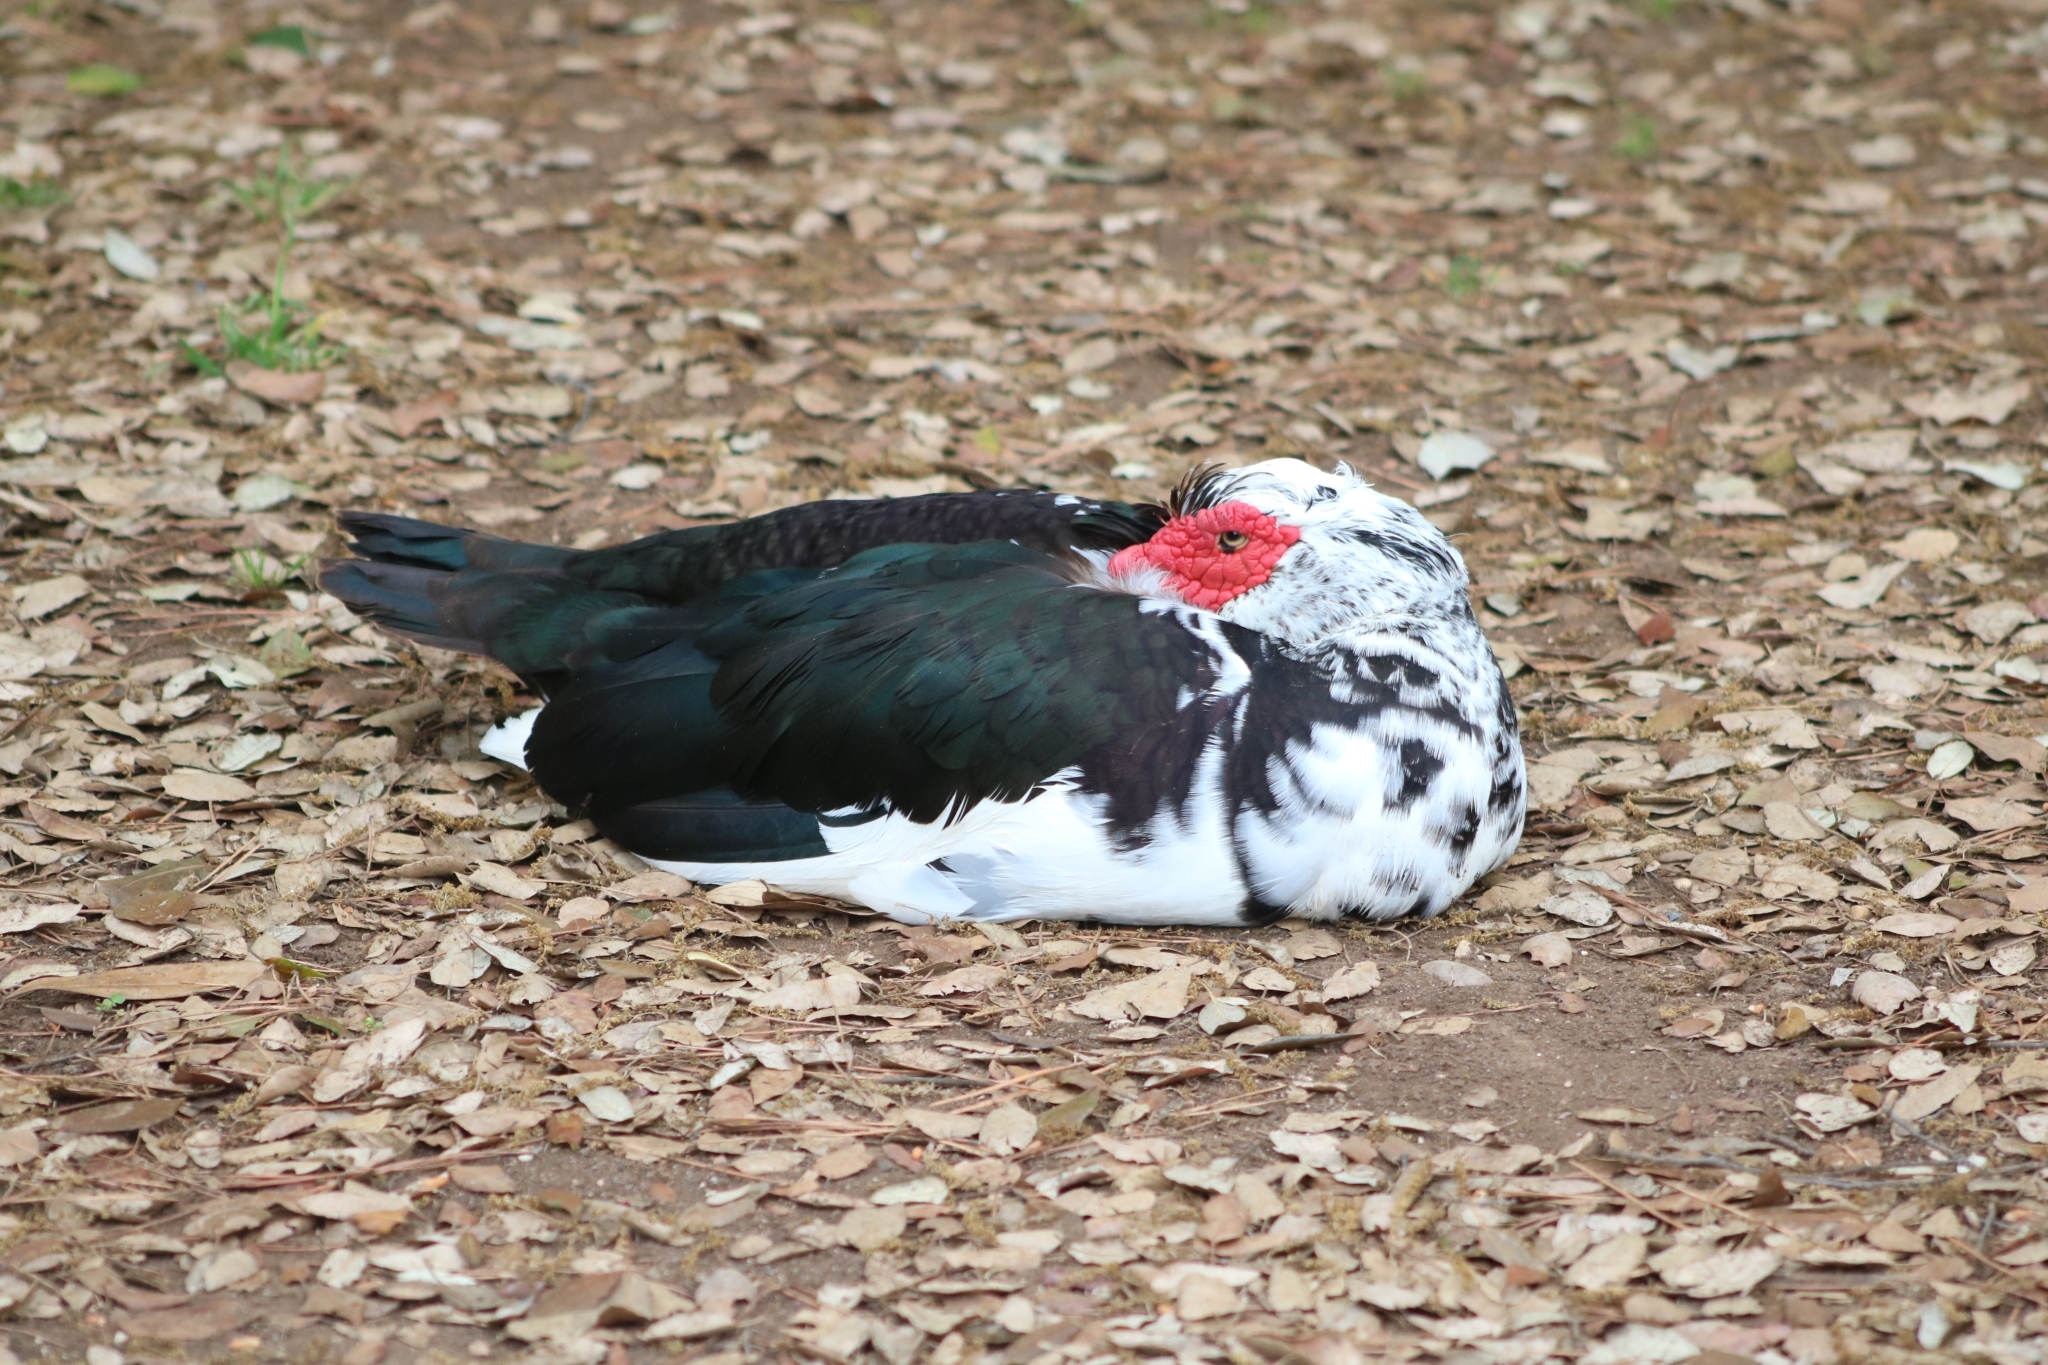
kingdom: Animalia
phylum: Chordata
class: Aves
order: Anseriformes
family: Anatidae
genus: Cairina
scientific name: Cairina moschata
